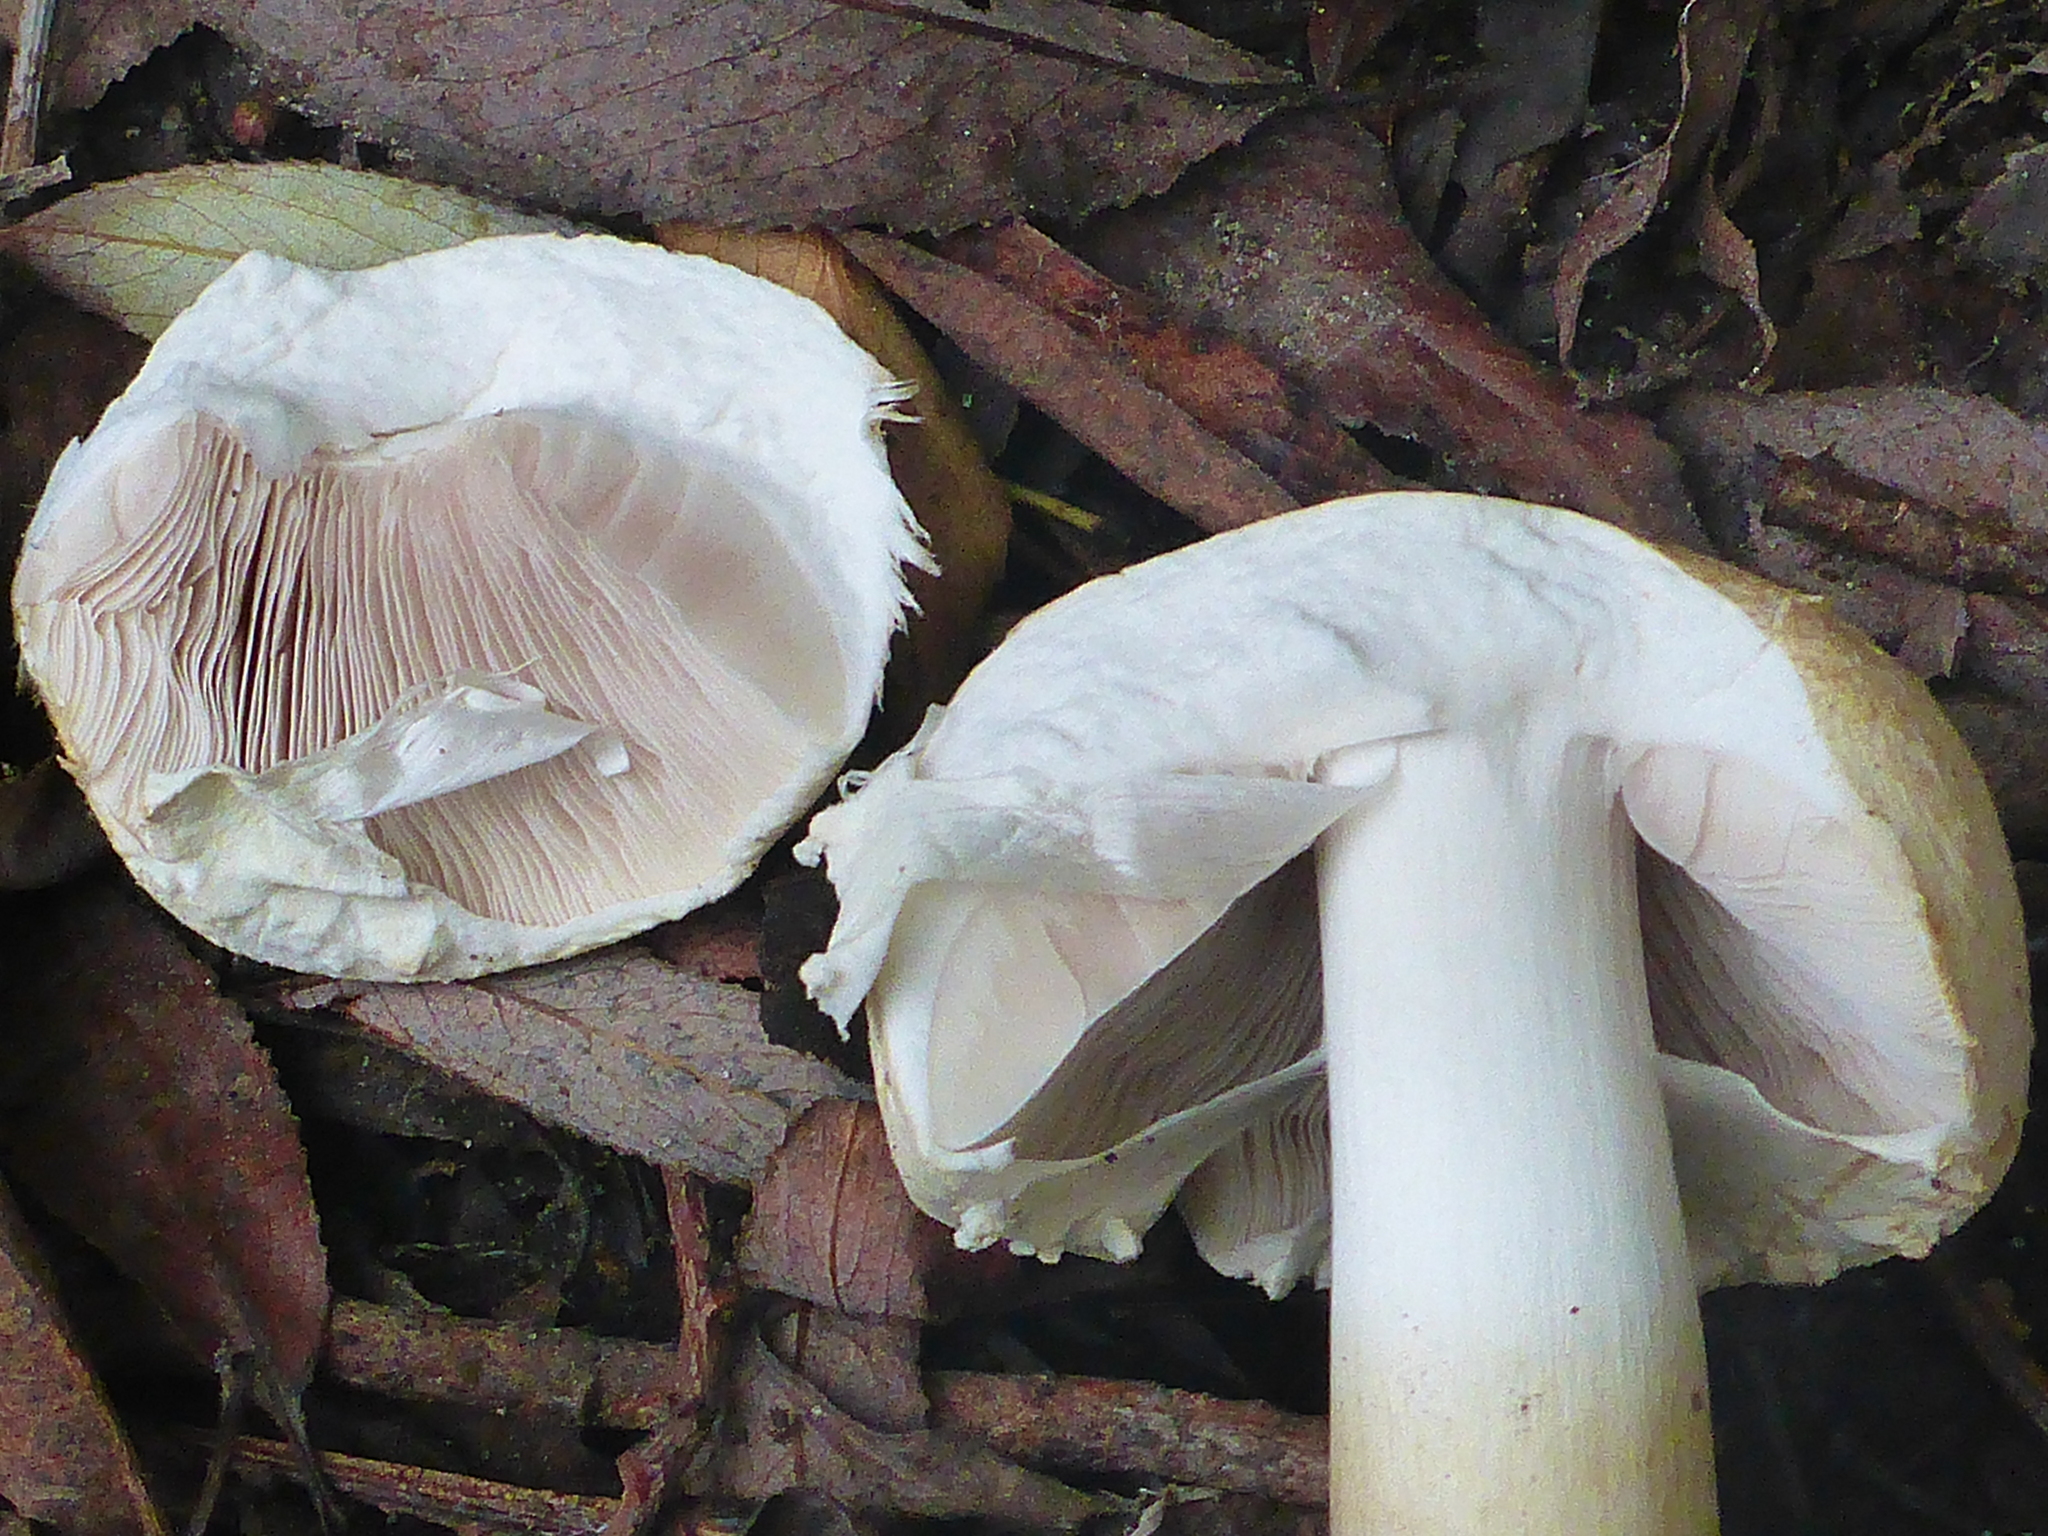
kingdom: Fungi
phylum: Basidiomycota
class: Agaricomycetes
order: Agaricales
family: Agaricaceae
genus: Agaricus
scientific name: Agaricus sylvicola
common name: Wood mushroom
